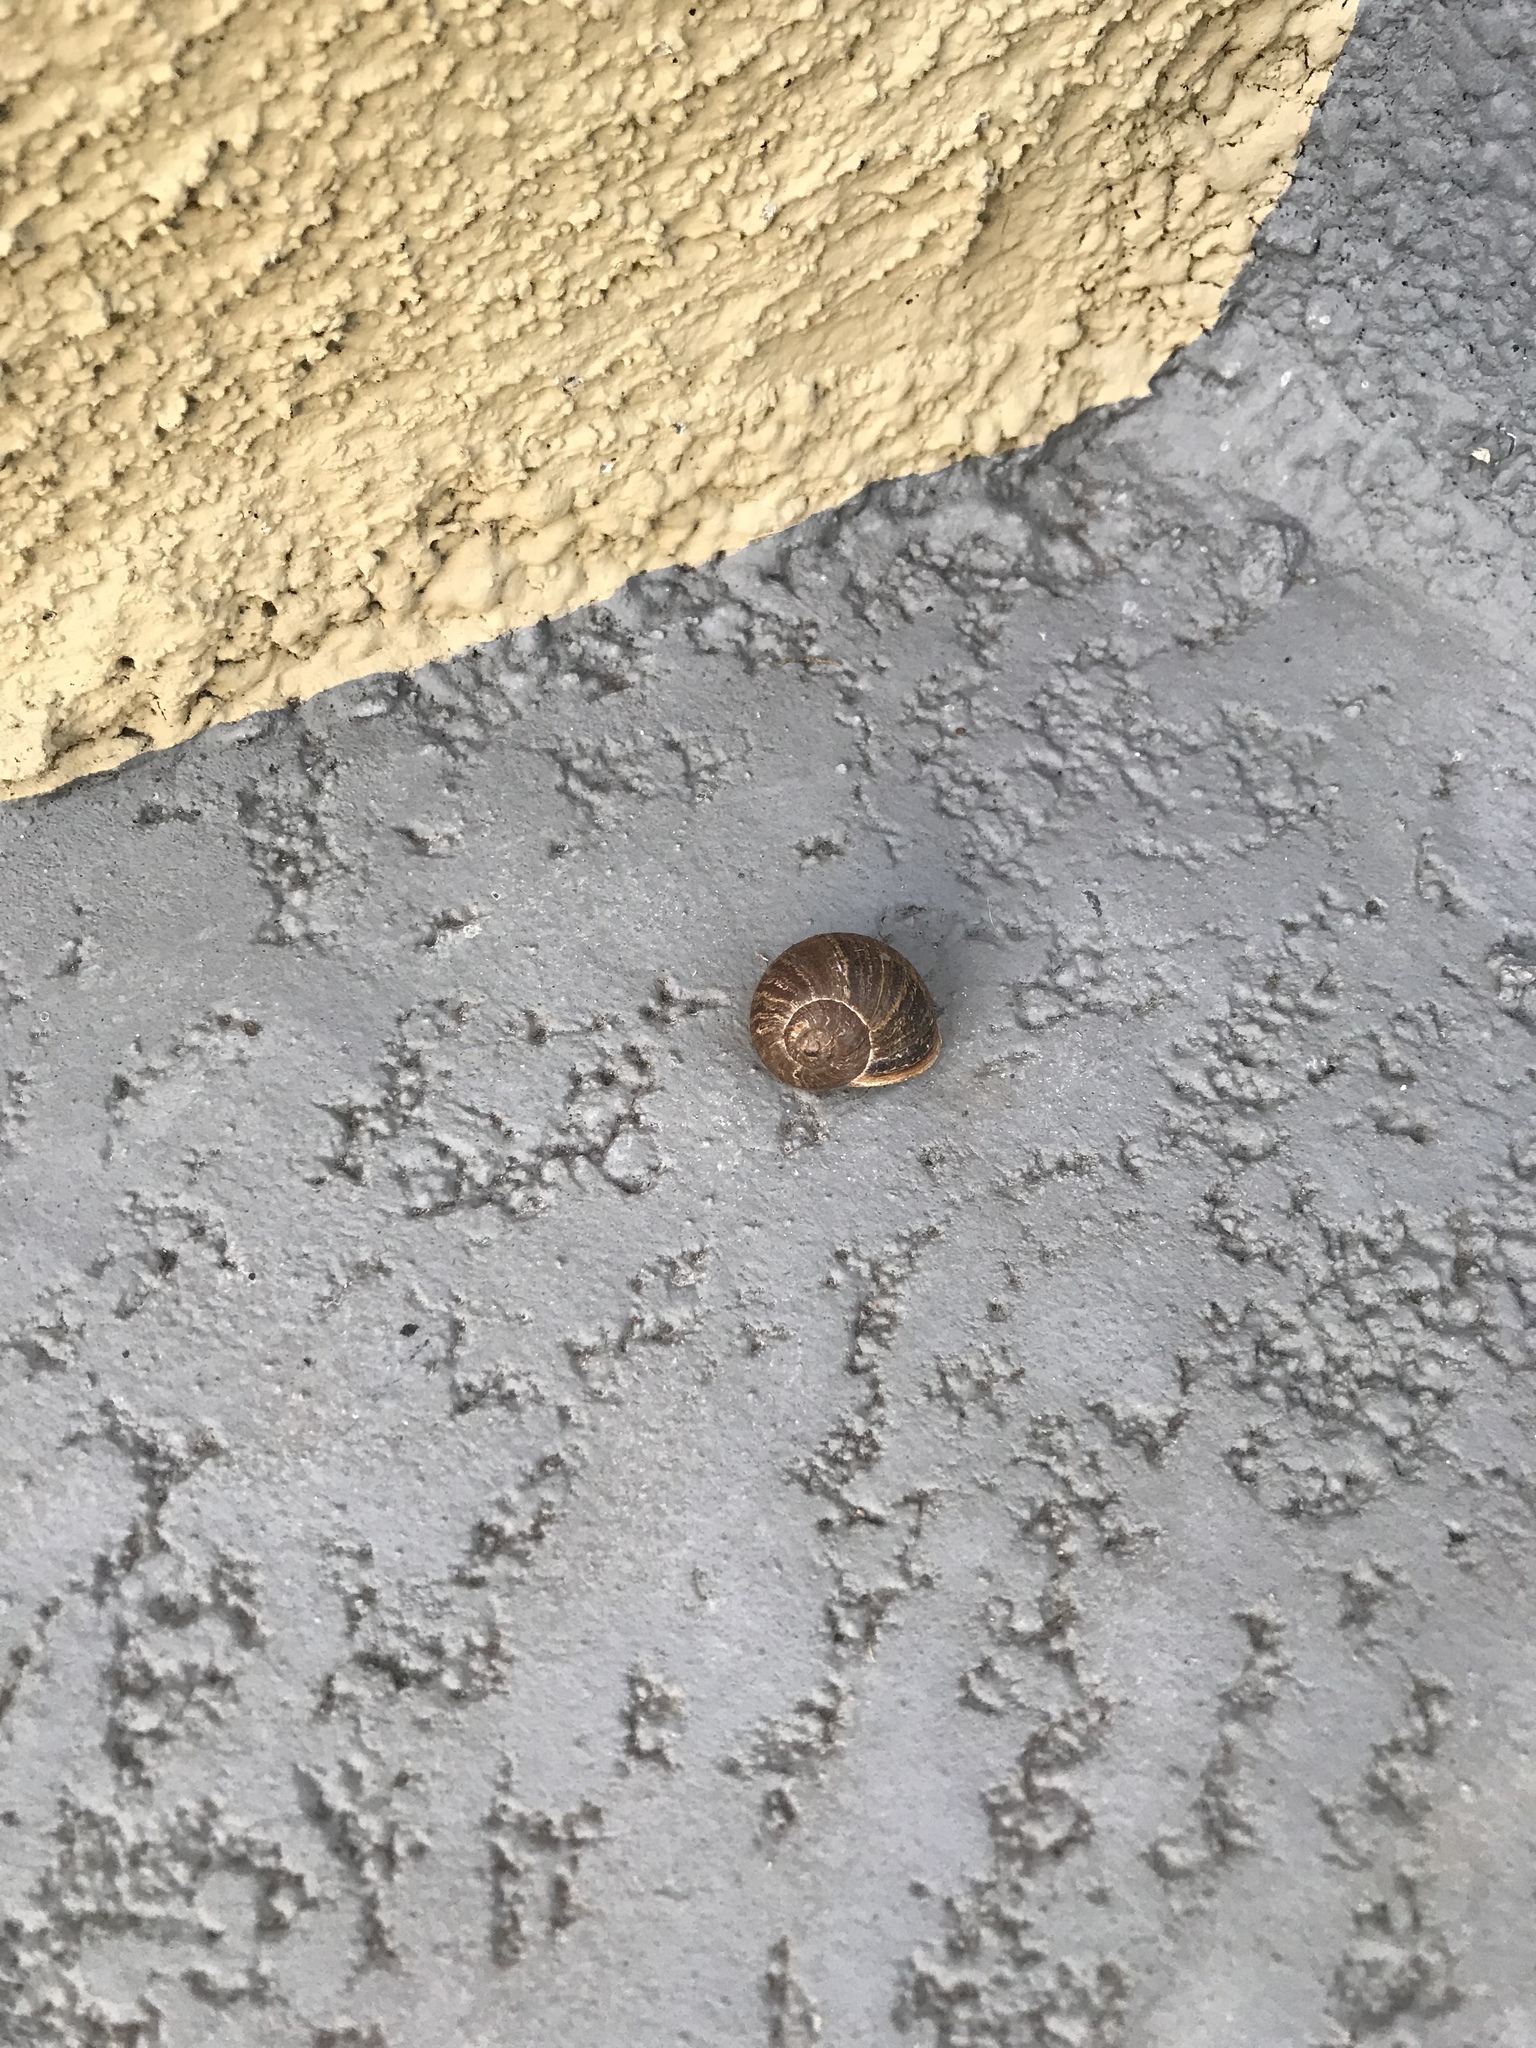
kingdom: Animalia
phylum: Mollusca
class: Gastropoda
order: Stylommatophora
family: Helicidae
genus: Cornu
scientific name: Cornu aspersum
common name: Brown garden snail
